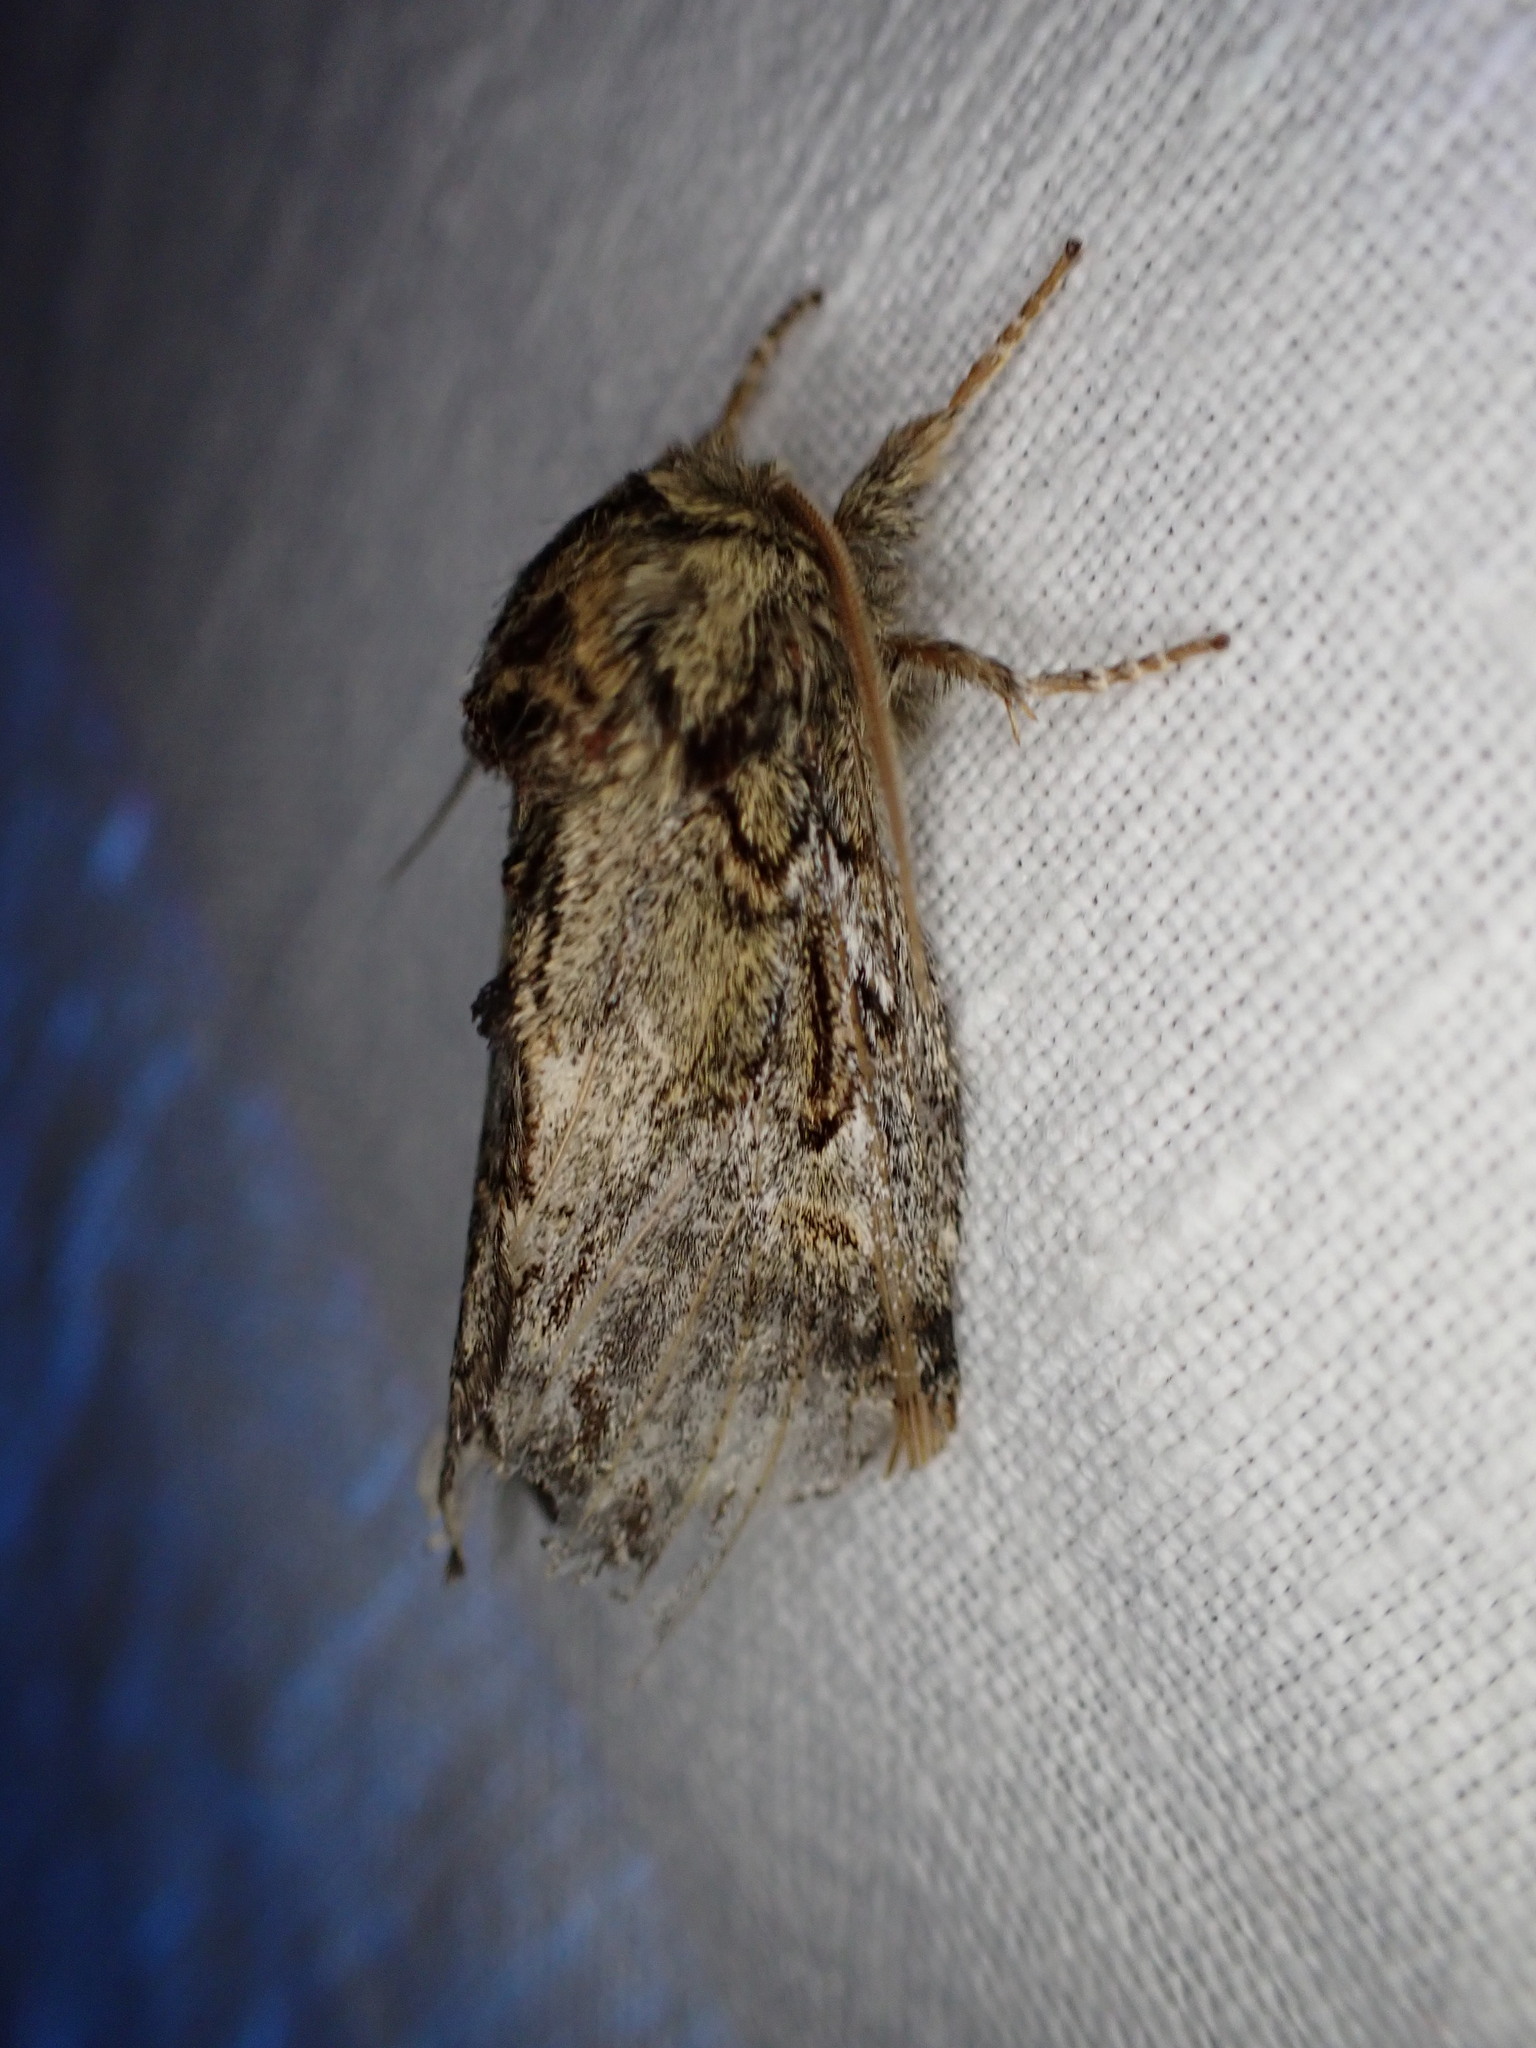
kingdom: Animalia
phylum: Arthropoda
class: Insecta
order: Lepidoptera
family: Notodontidae
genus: Peridea
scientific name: Peridea anceps
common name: Great prominent
